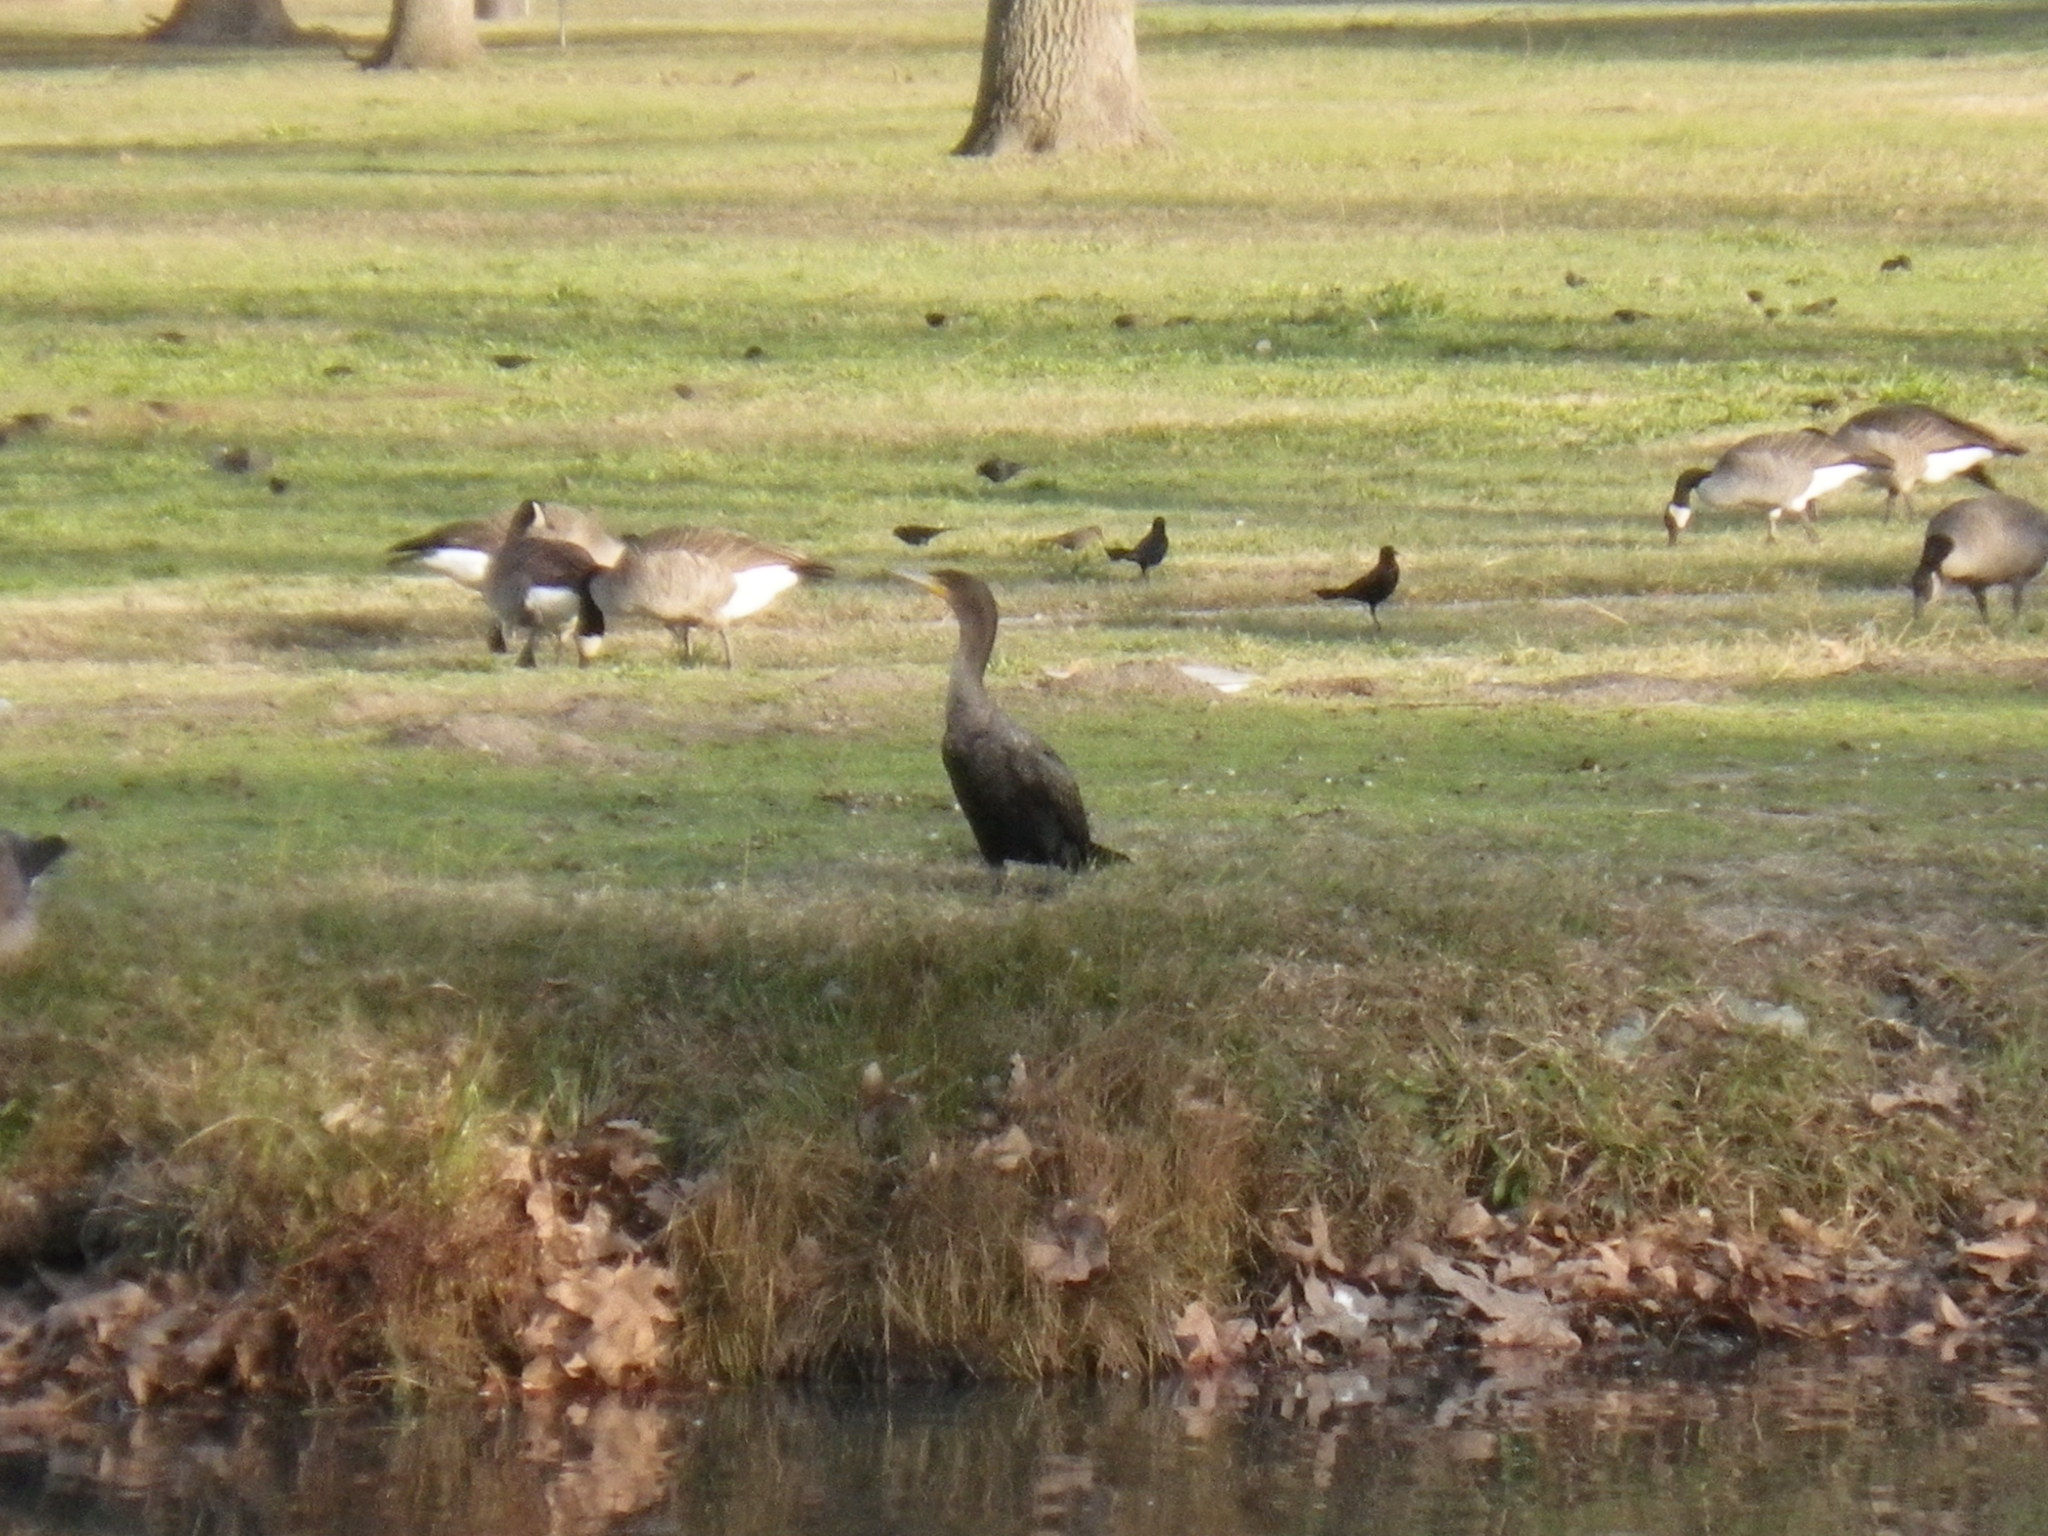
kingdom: Animalia
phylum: Chordata
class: Aves
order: Suliformes
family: Phalacrocoracidae
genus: Phalacrocorax
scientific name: Phalacrocorax auritus
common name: Double-crested cormorant
